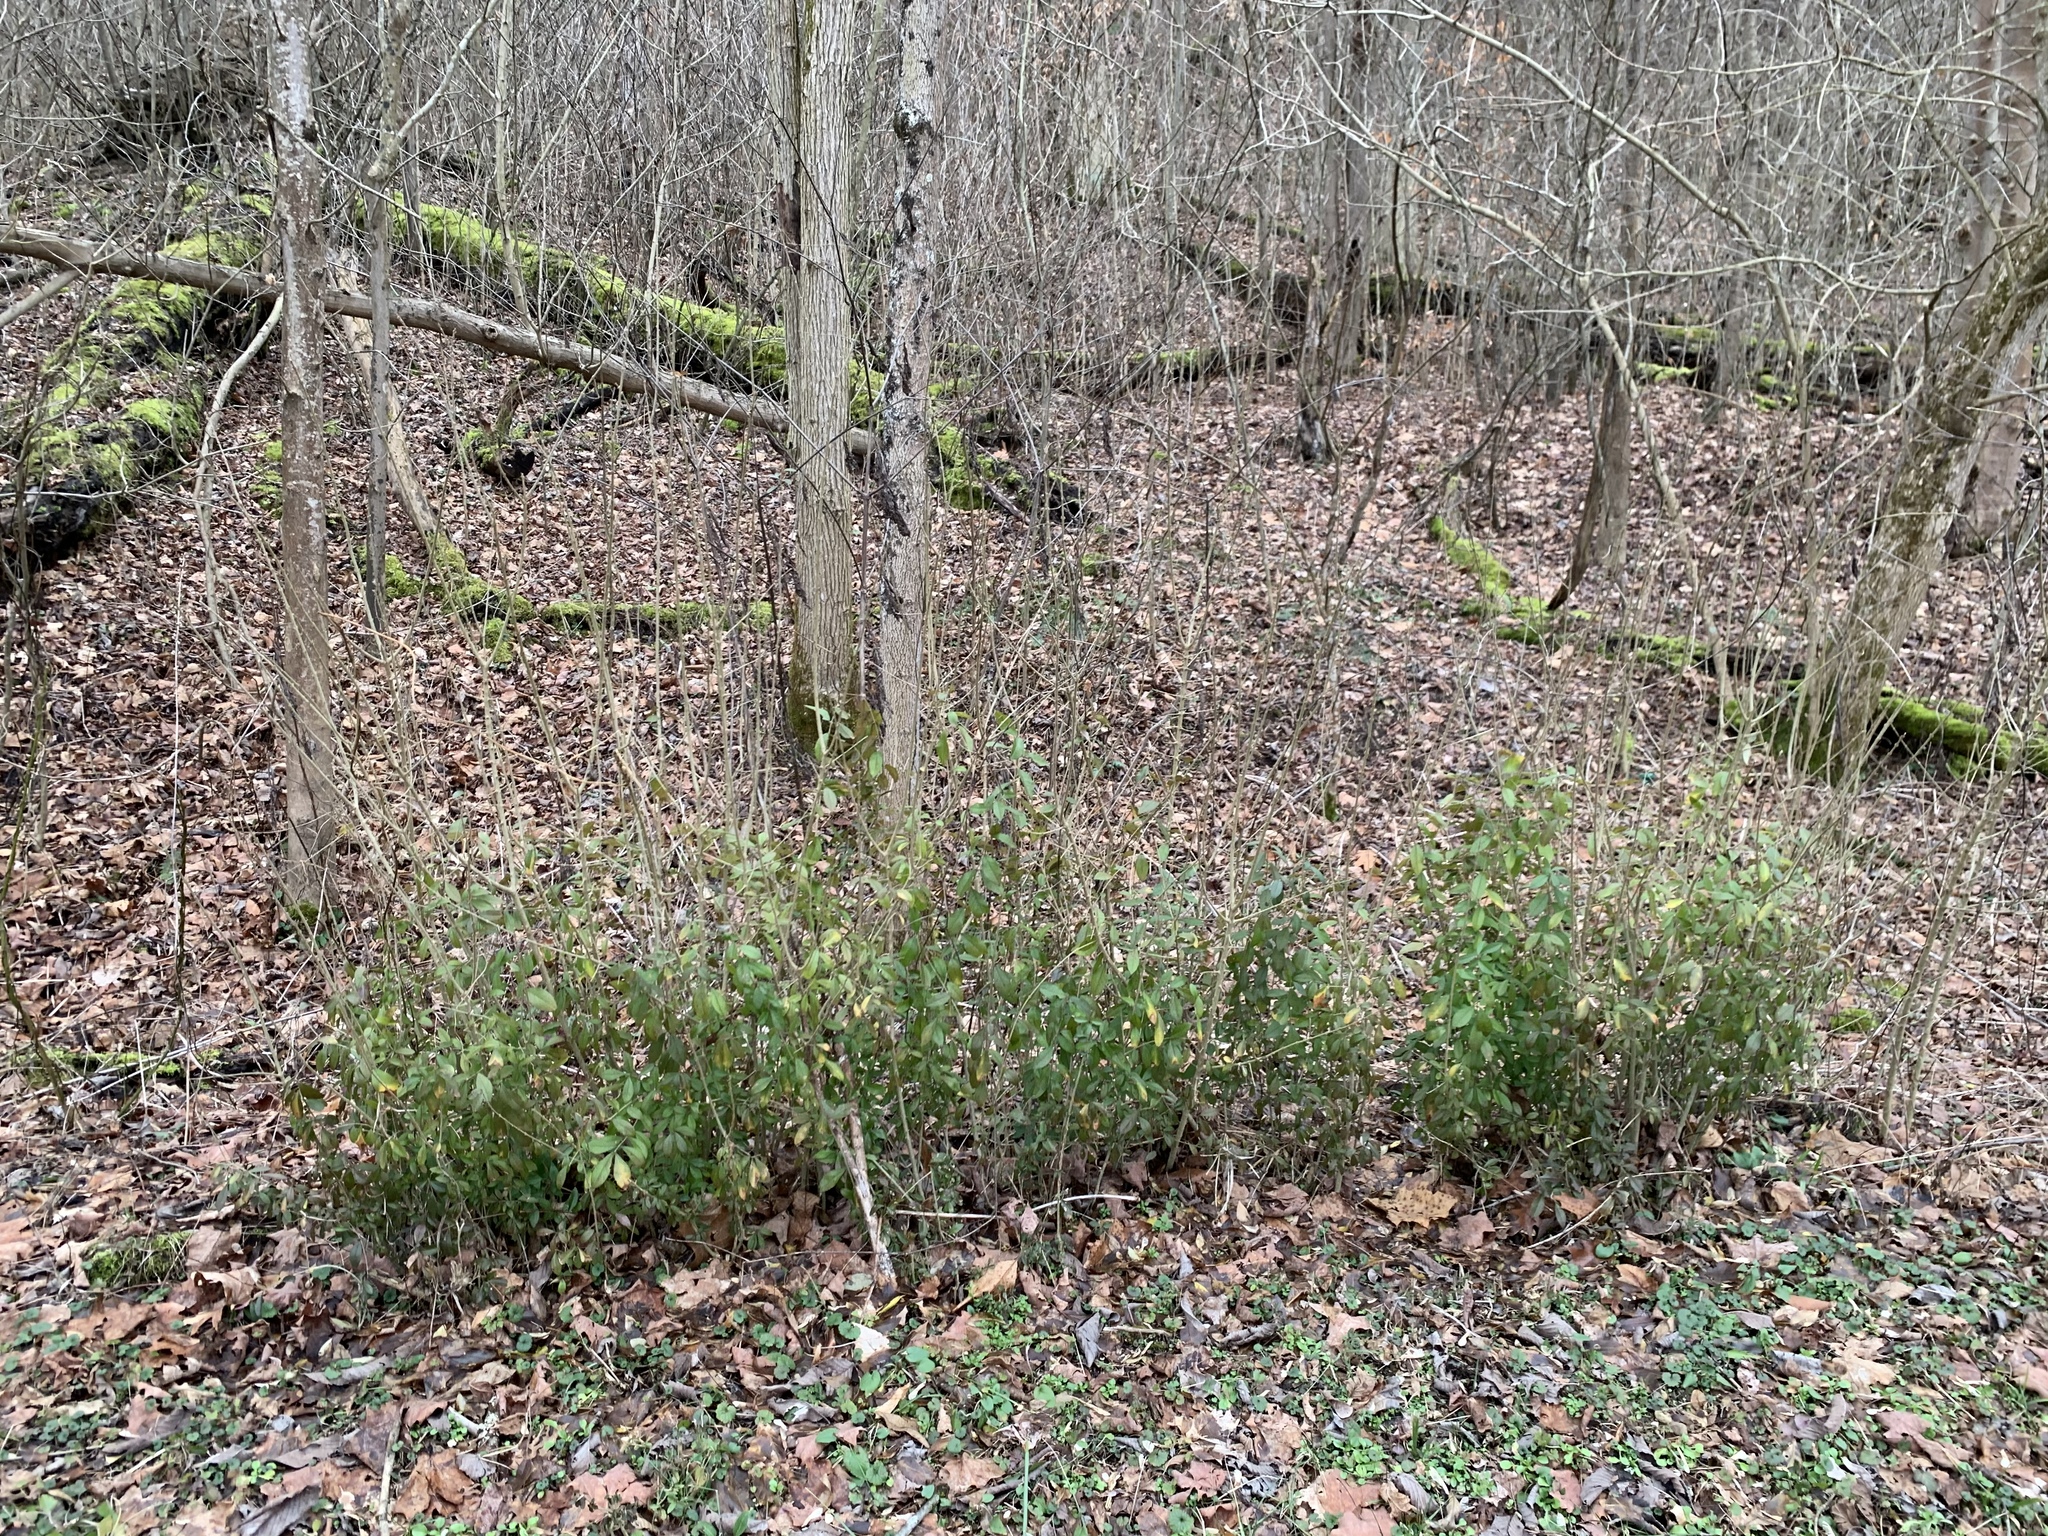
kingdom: Plantae
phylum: Tracheophyta
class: Magnoliopsida
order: Lamiales
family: Oleaceae
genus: Ligustrum
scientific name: Ligustrum obtusifolium
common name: Border privet
